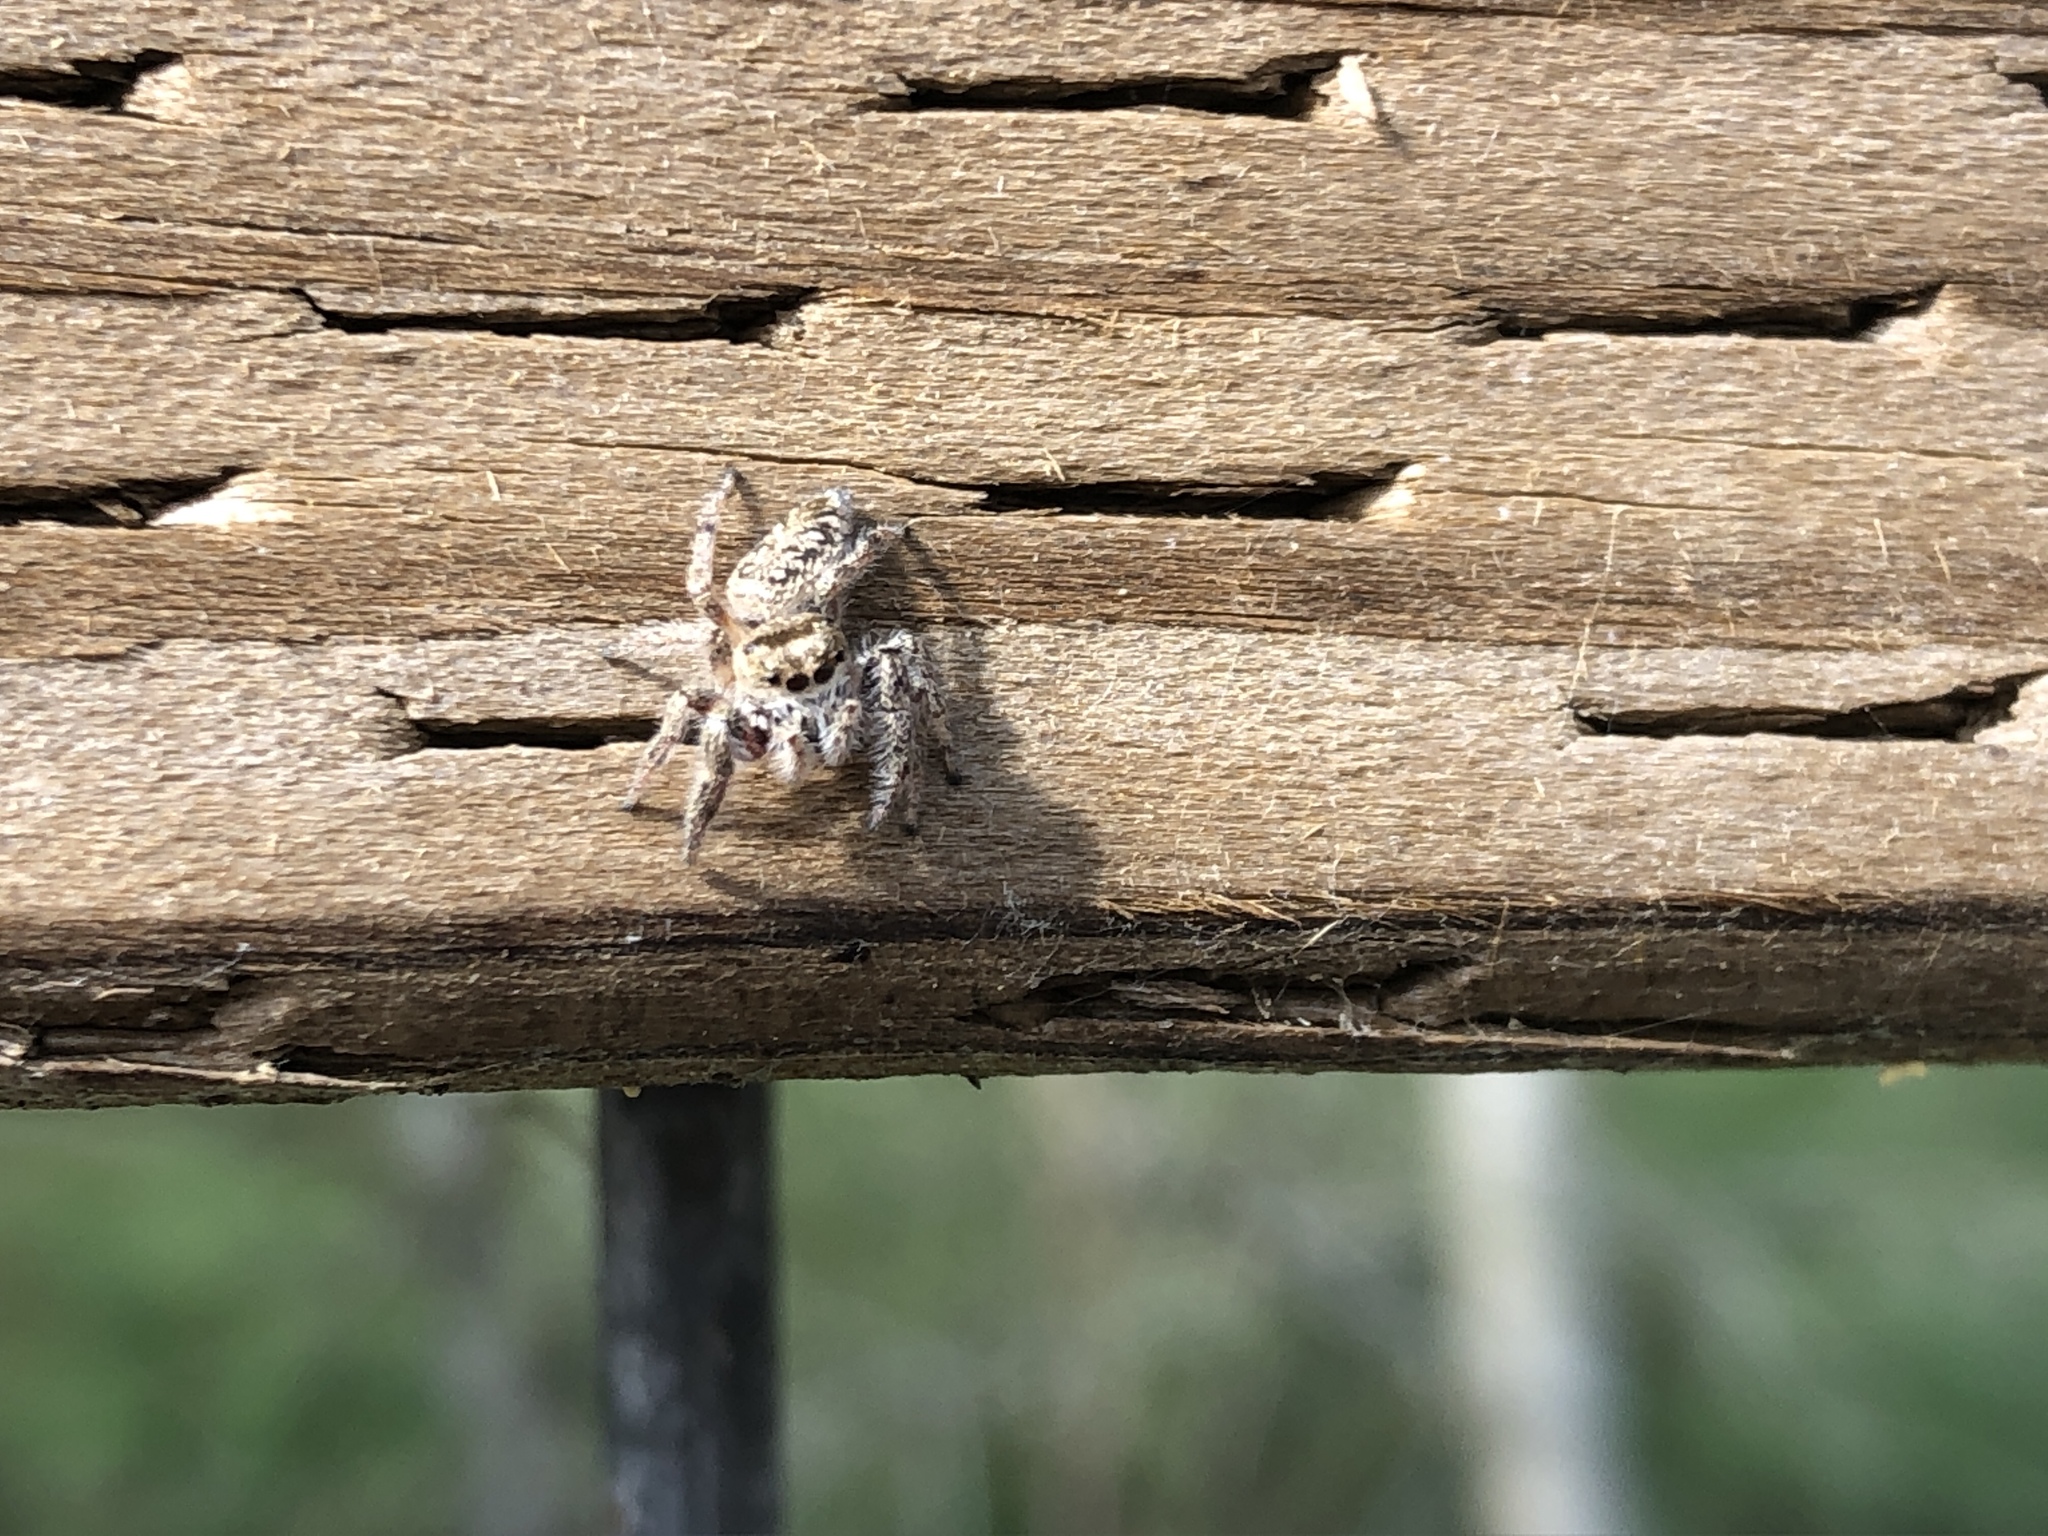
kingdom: Animalia
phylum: Arthropoda
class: Arachnida
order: Araneae
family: Salticidae
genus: Eris
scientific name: Eris militaris
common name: Bronze jumper
